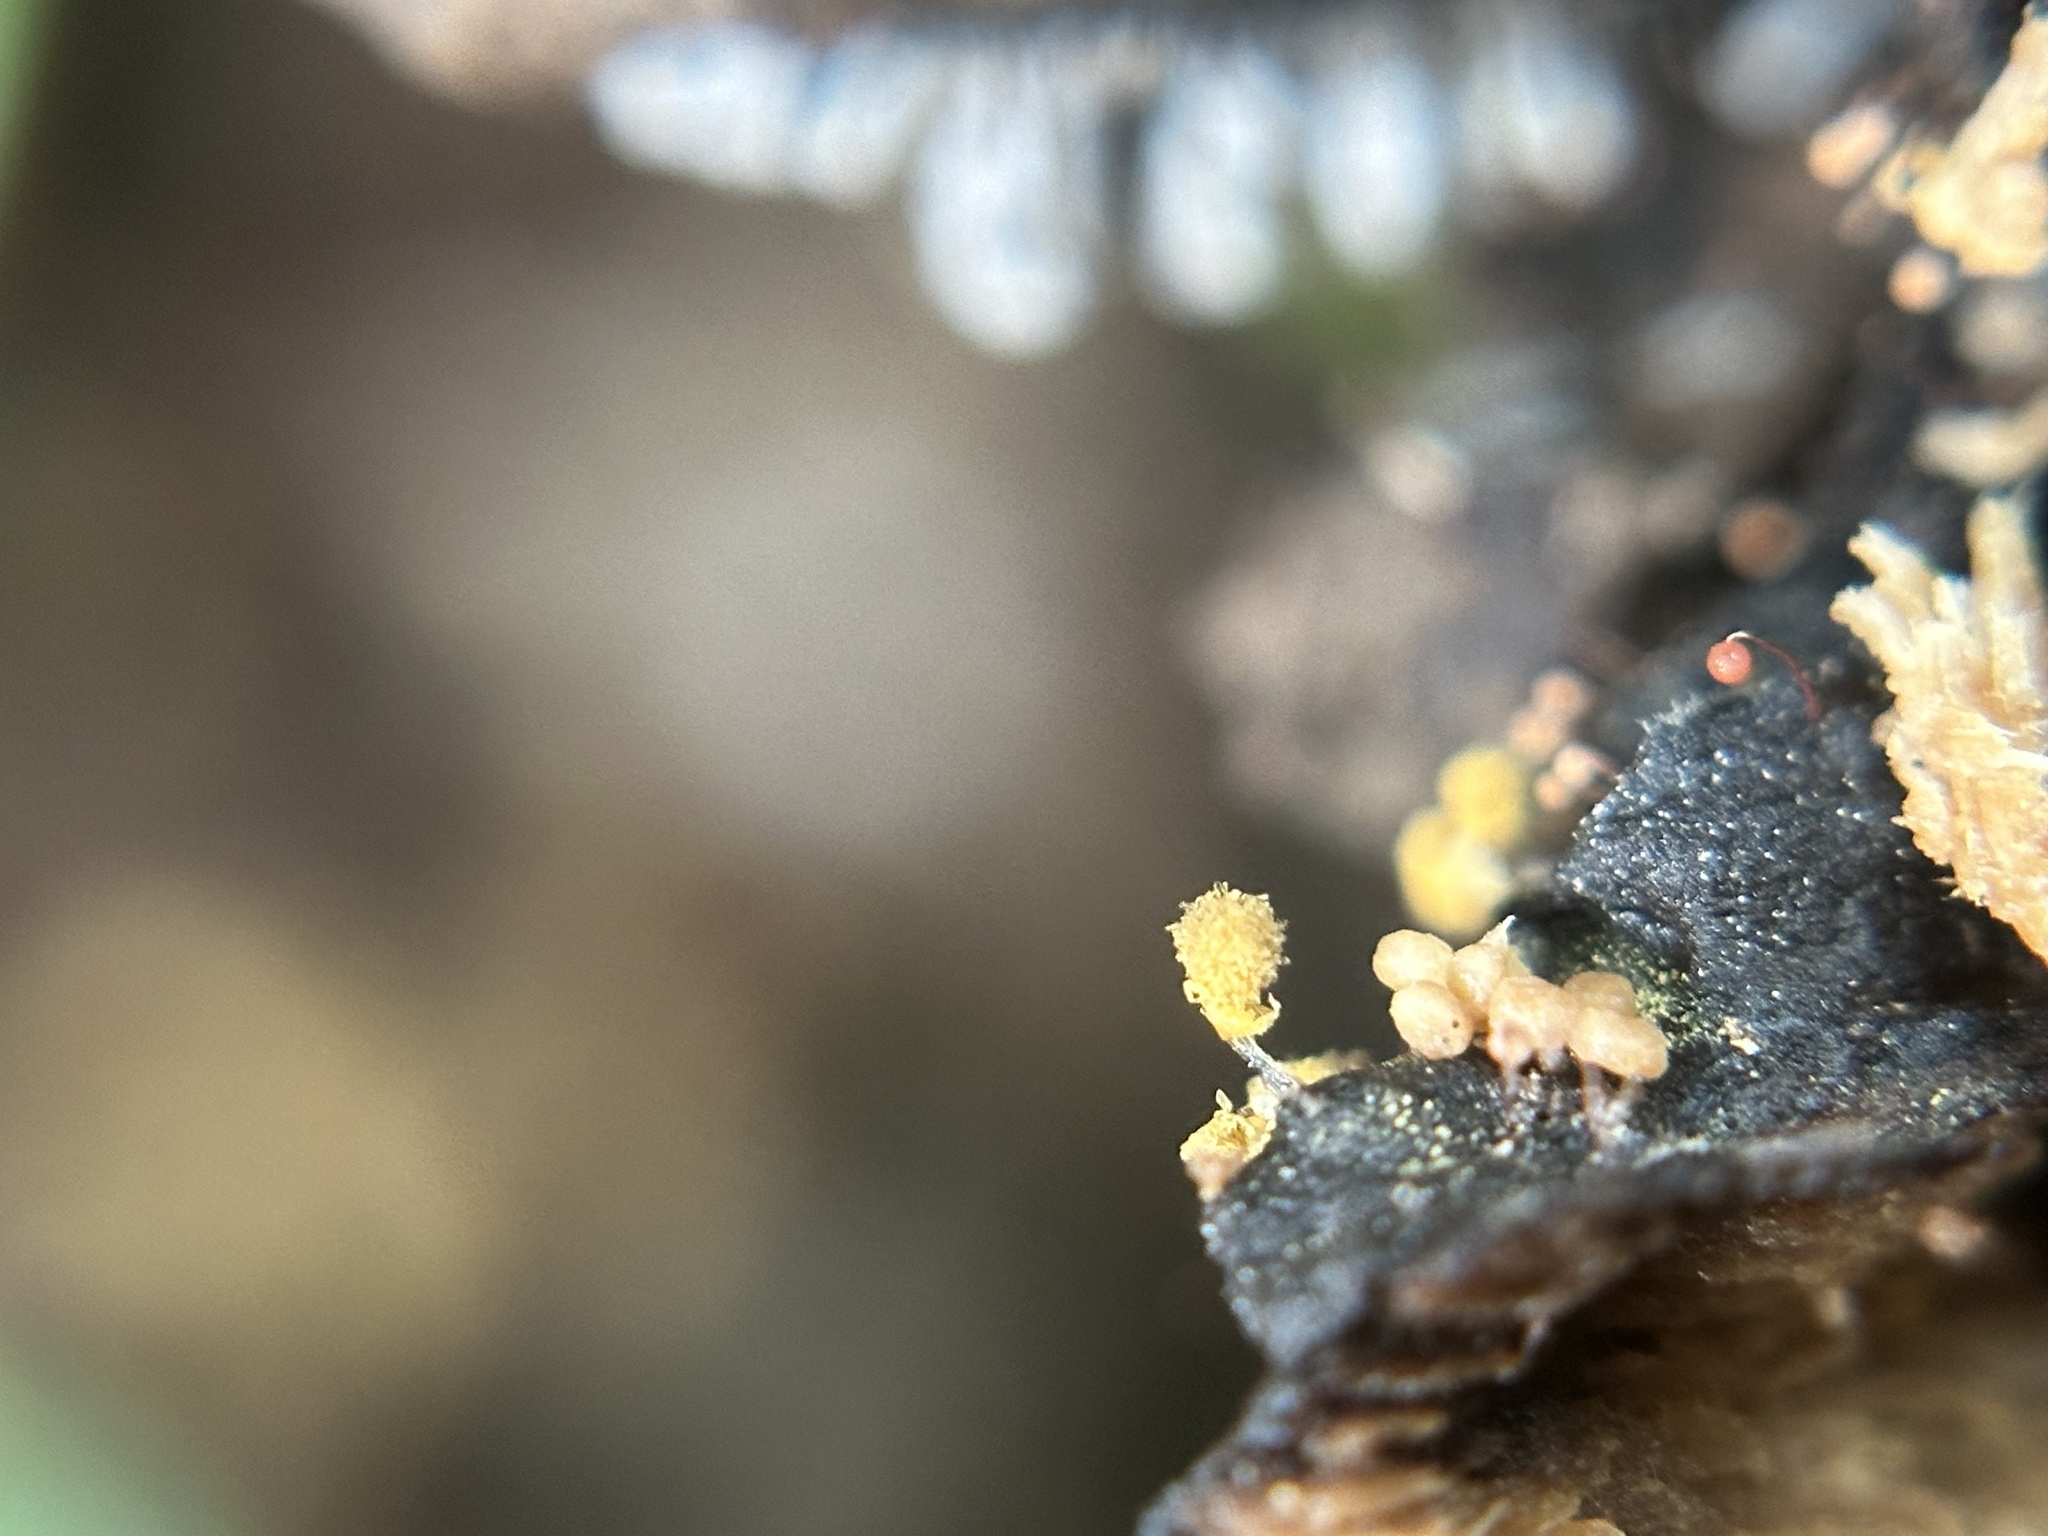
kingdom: Protozoa
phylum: Mycetozoa
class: Myxomycetes
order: Trichiales
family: Arcyriaceae
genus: Hemitrichia
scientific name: Hemitrichia calyculata
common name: Push pin slime mold
